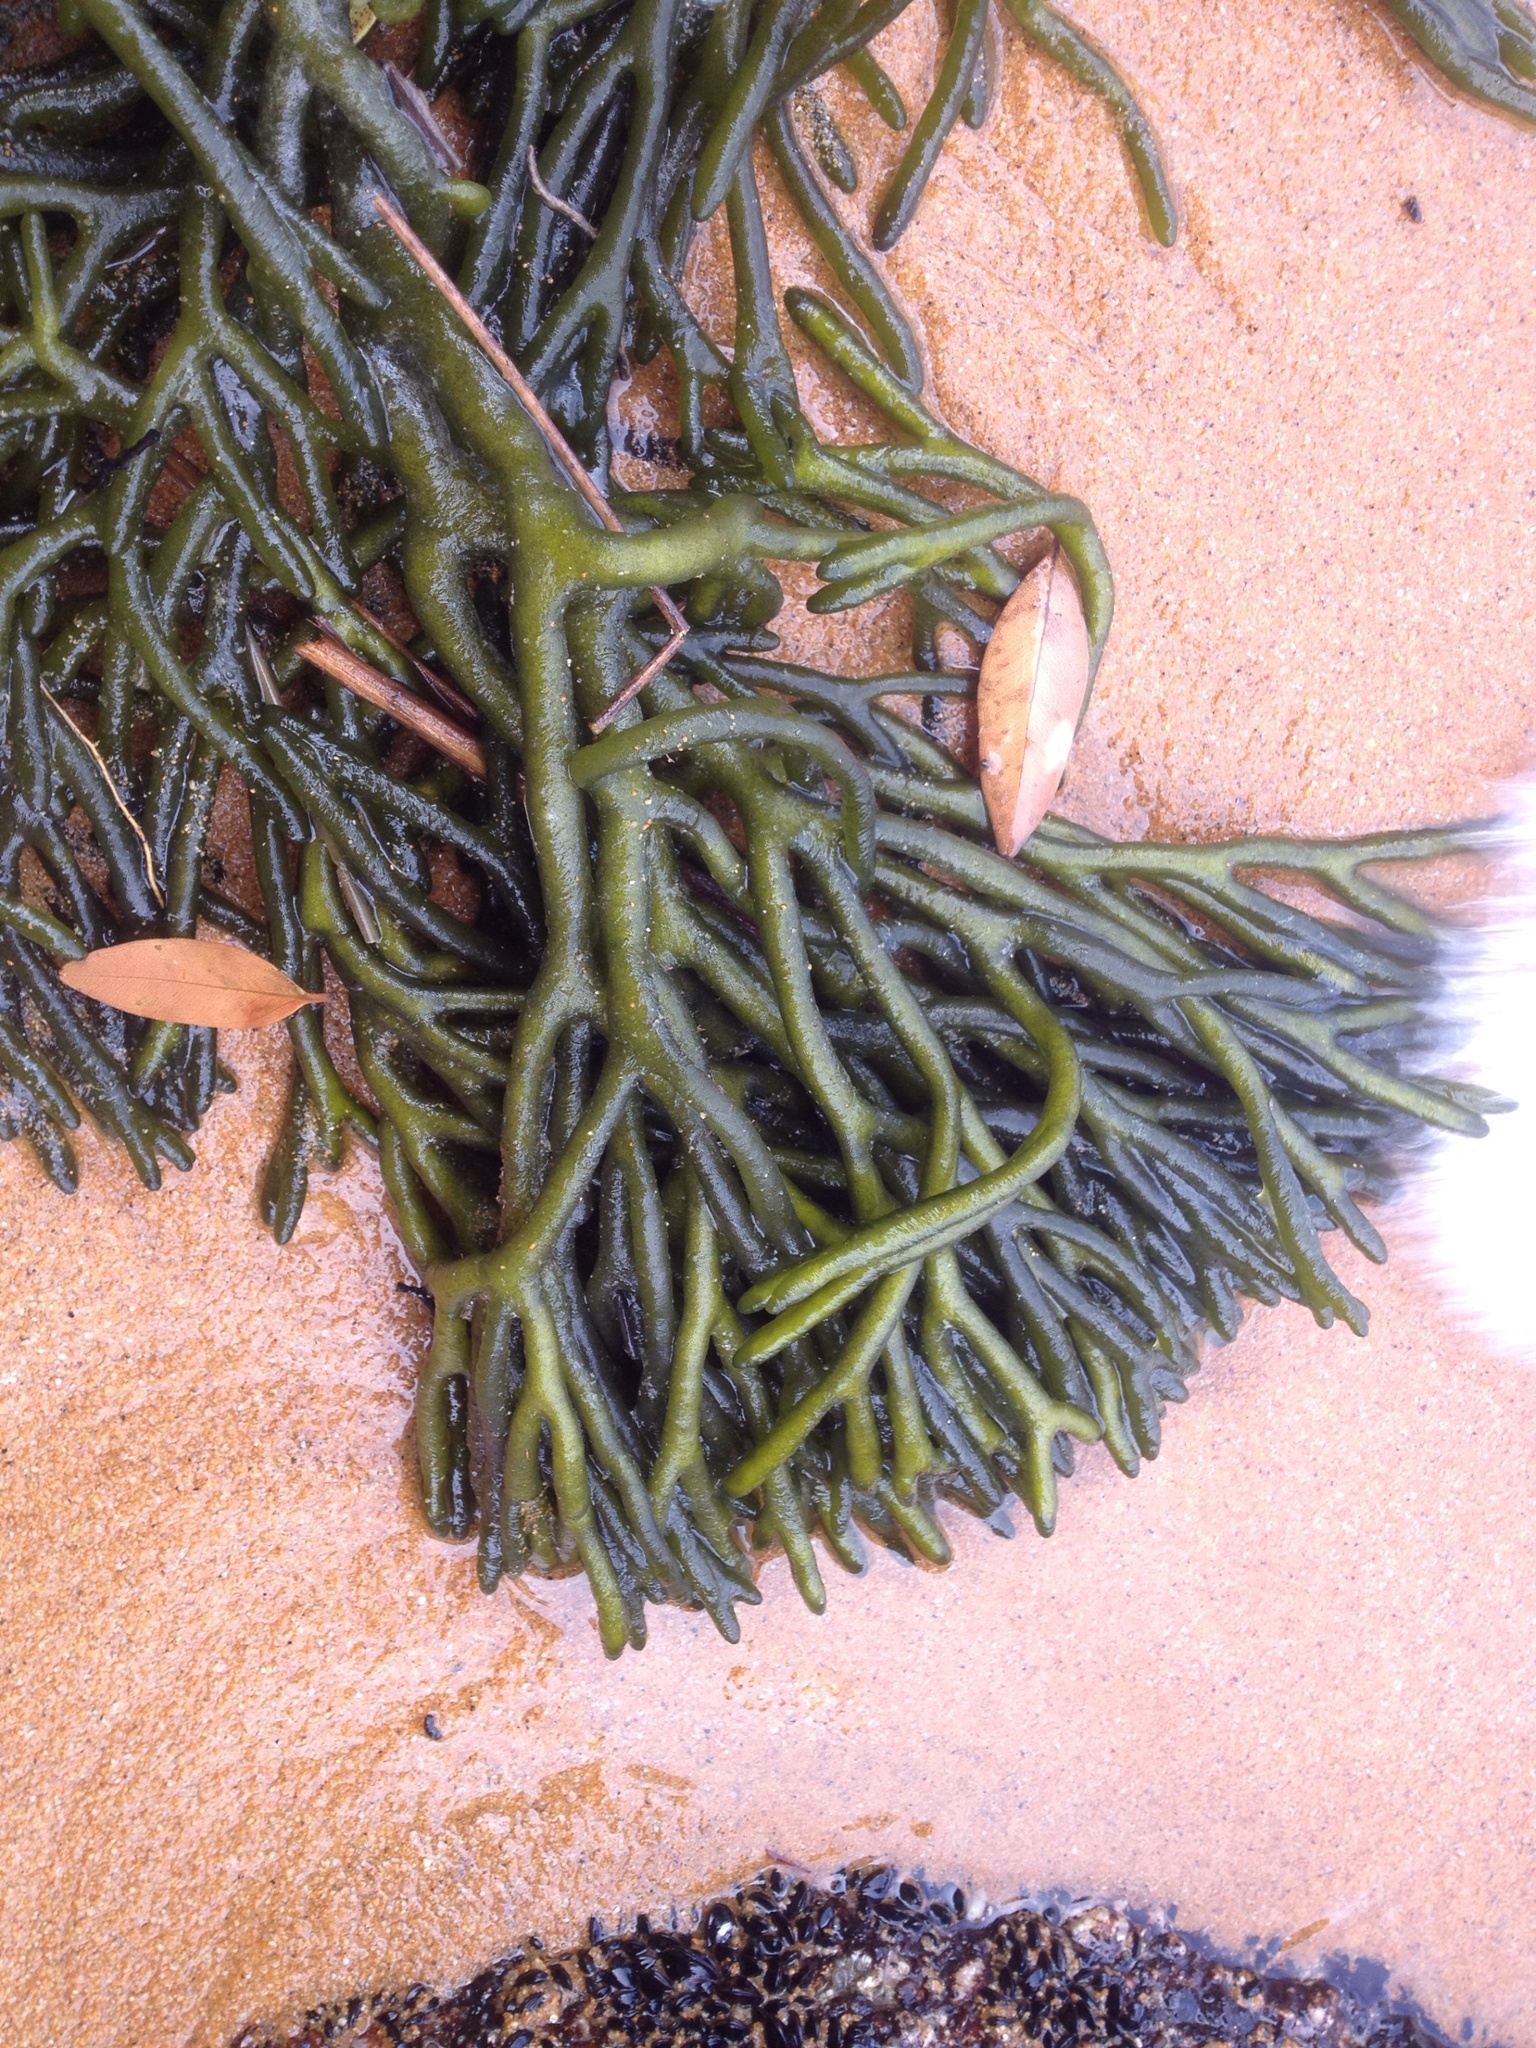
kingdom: Plantae
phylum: Chlorophyta
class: Ulvophyceae
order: Bryopsidales
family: Codiaceae
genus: Codium
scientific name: Codium fragile
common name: Dead man's fingers
